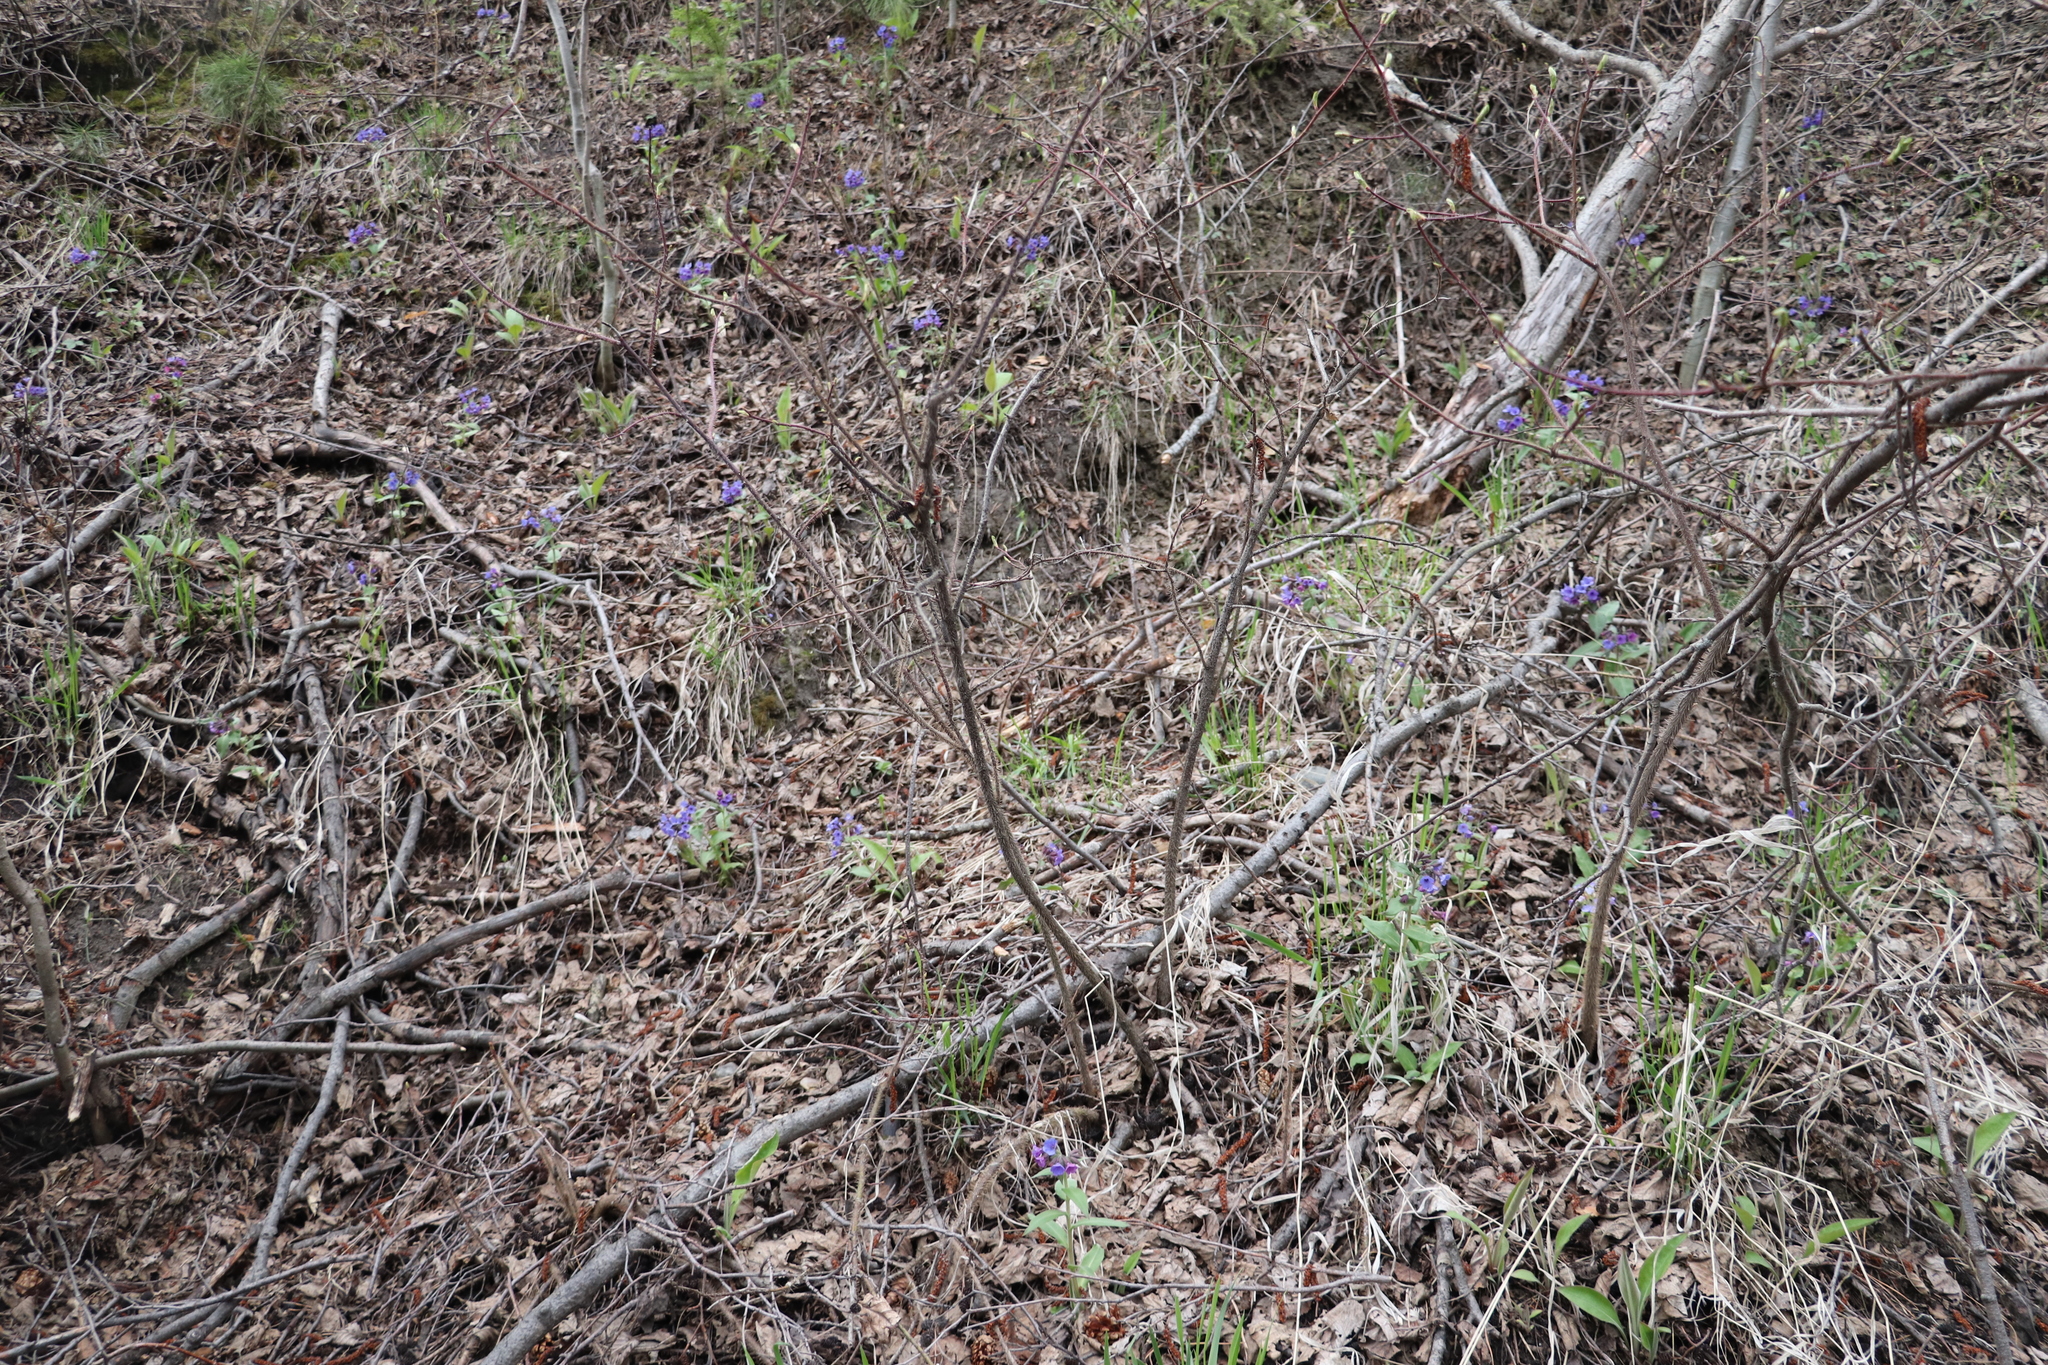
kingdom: Plantae
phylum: Tracheophyta
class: Magnoliopsida
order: Boraginales
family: Boraginaceae
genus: Pulmonaria
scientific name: Pulmonaria mollis
